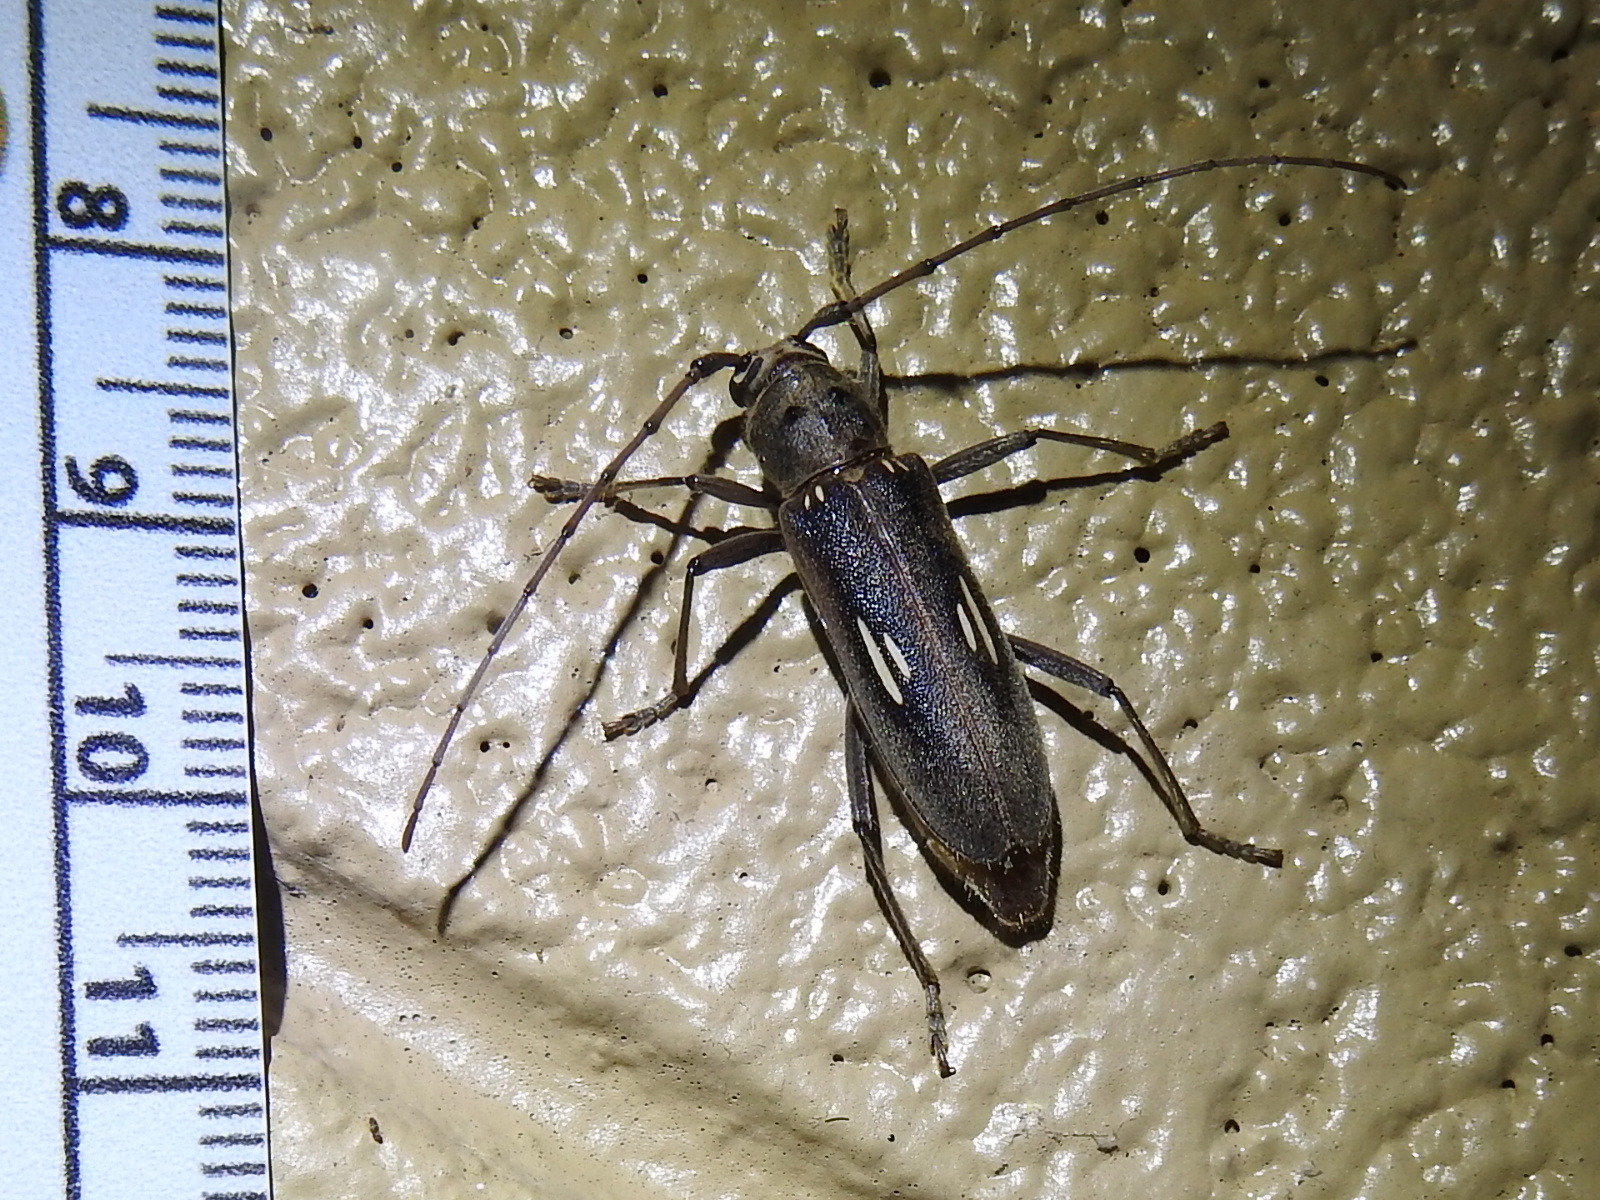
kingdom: Animalia
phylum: Arthropoda
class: Insecta
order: Coleoptera
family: Cerambycidae
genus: Eburia
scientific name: Eburia ovicollis
